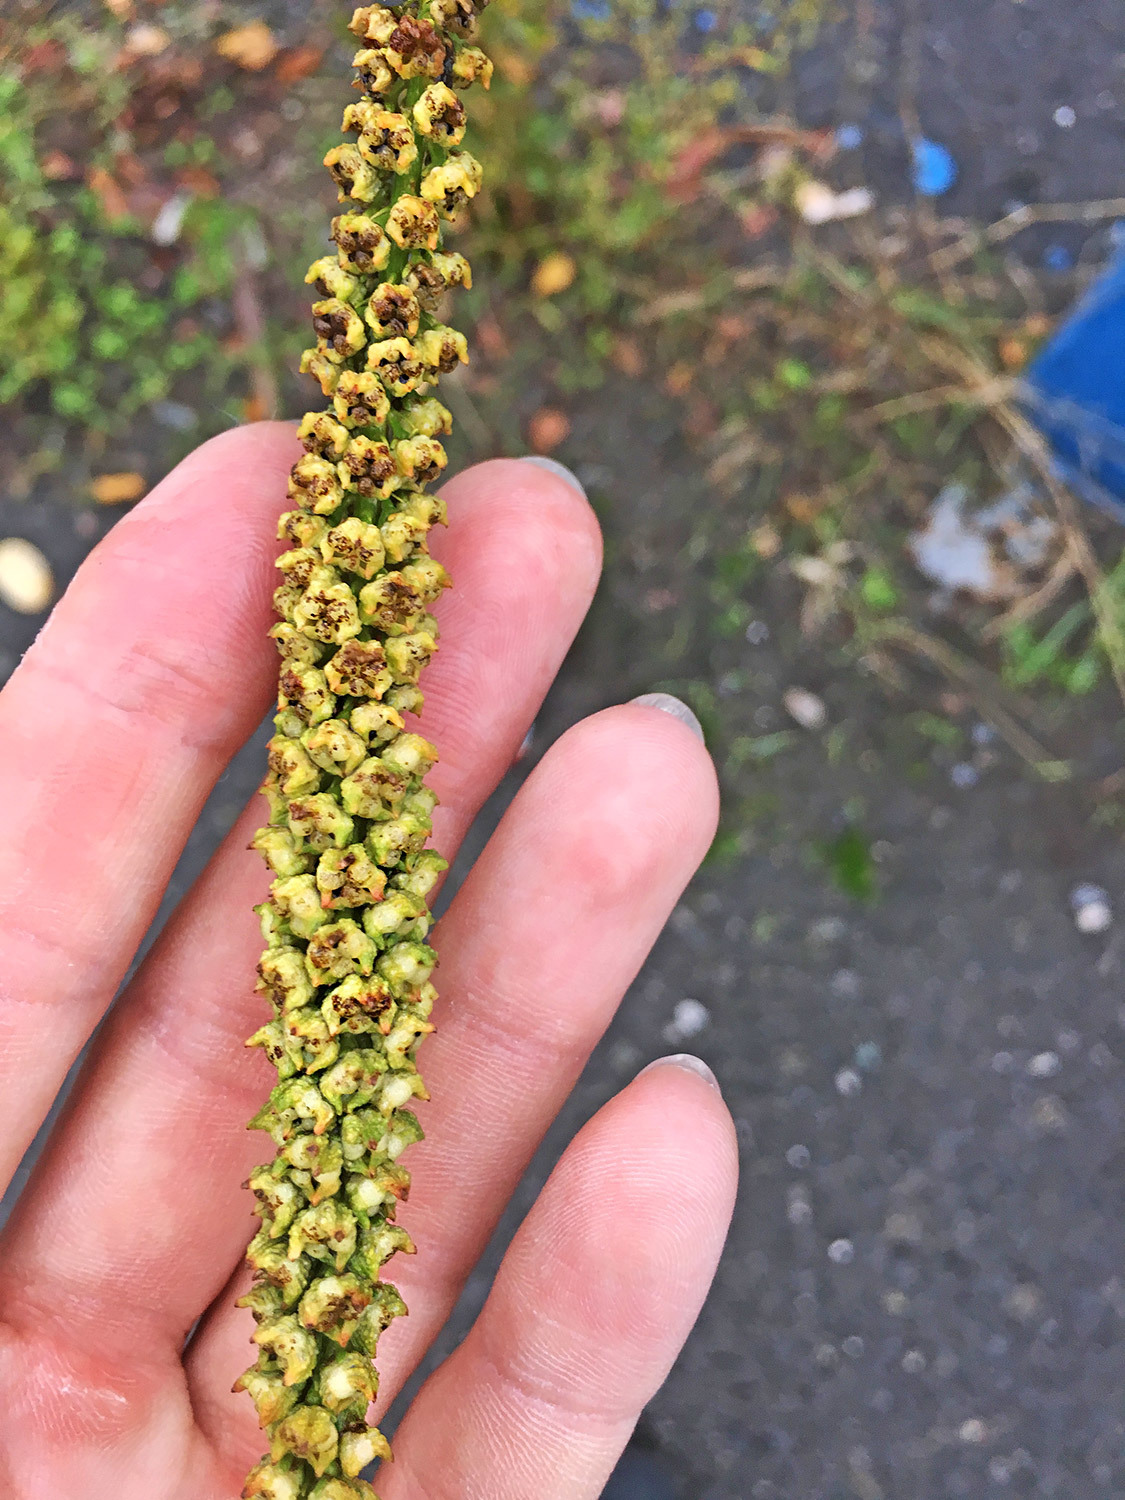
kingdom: Plantae
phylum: Tracheophyta
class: Magnoliopsida
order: Brassicales
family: Resedaceae
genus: Reseda
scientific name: Reseda luteola
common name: Weld
